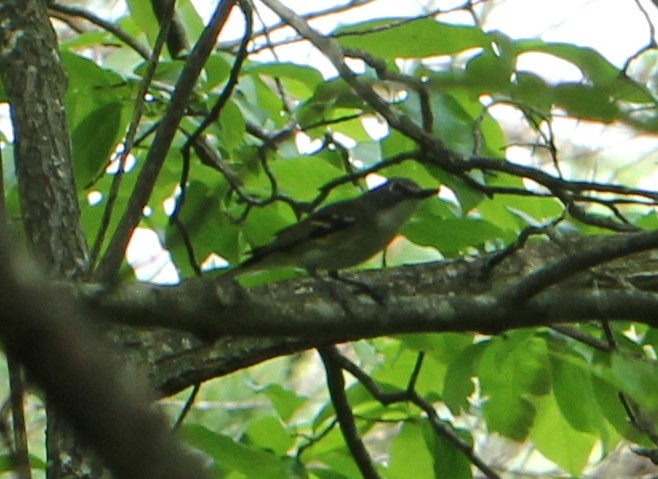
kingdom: Animalia
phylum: Chordata
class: Aves
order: Passeriformes
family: Vireonidae
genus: Vireo
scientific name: Vireo solitarius
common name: Blue-headed vireo
